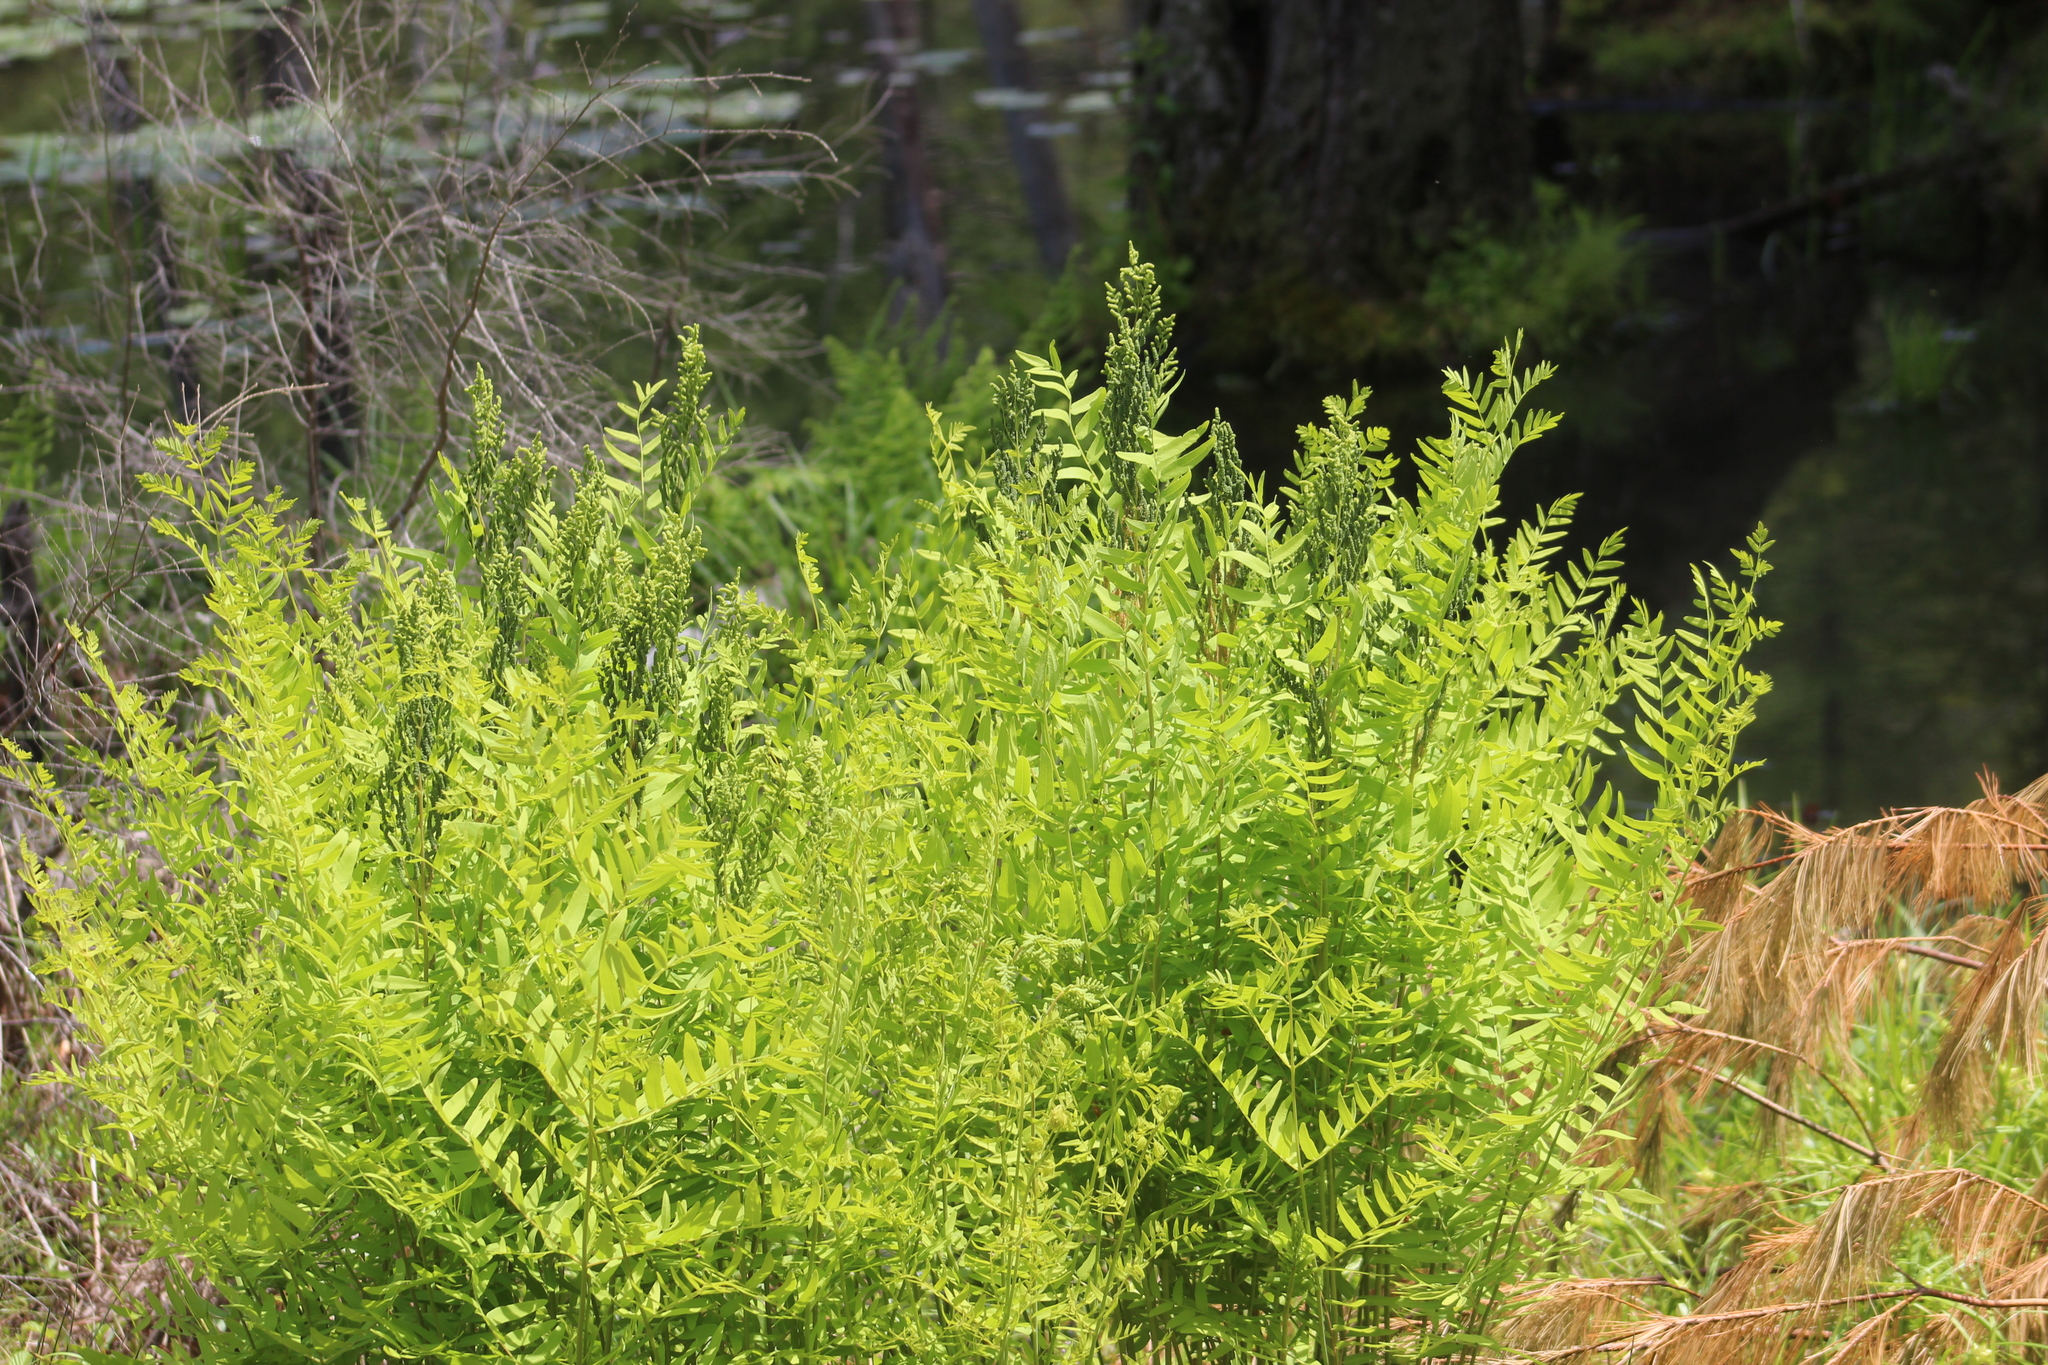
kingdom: Plantae
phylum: Tracheophyta
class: Polypodiopsida
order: Osmundales
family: Osmundaceae
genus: Osmunda
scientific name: Osmunda spectabilis
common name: American royal fern
